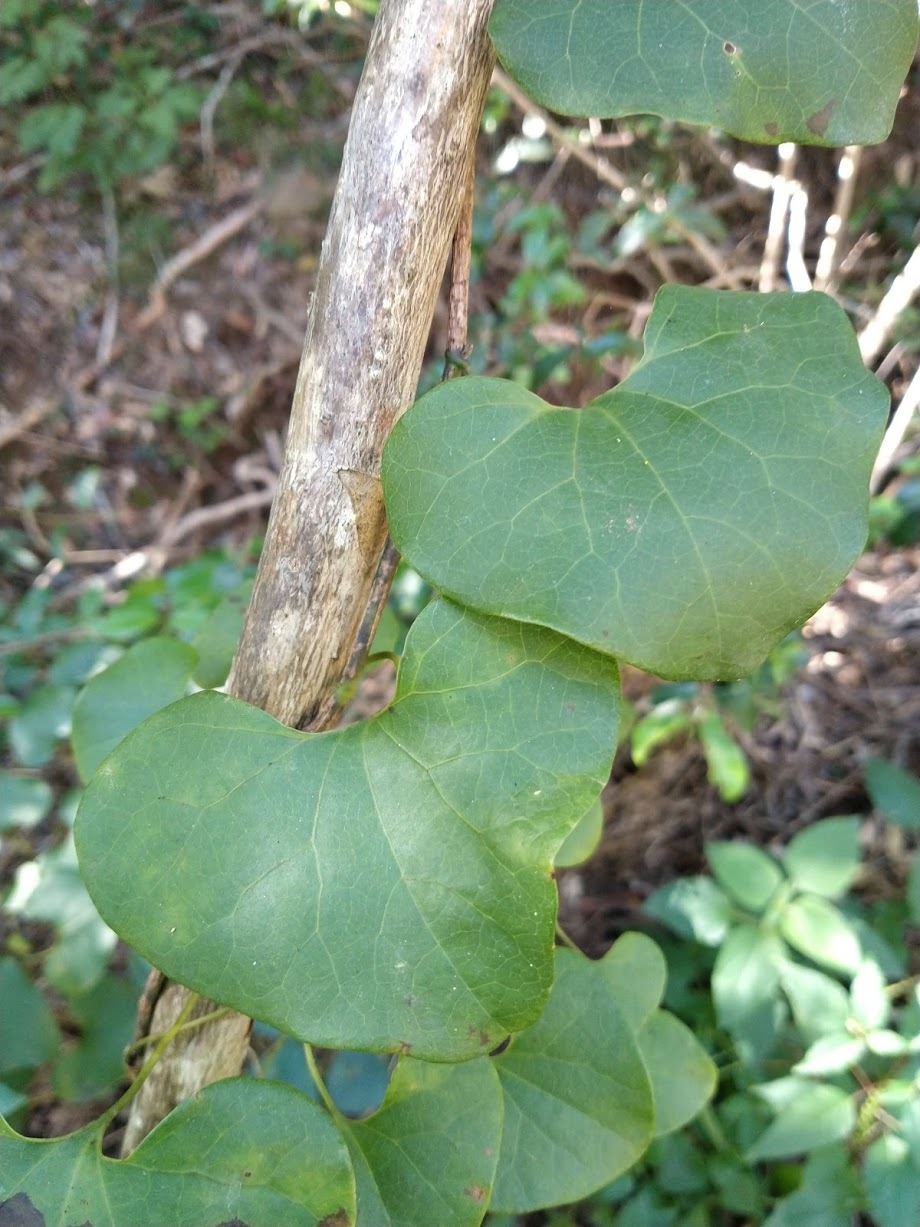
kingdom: Plantae
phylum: Tracheophyta
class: Magnoliopsida
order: Piperales
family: Aristolochiaceae
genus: Aristolochia
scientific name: Aristolochia littoralis
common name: Duck
